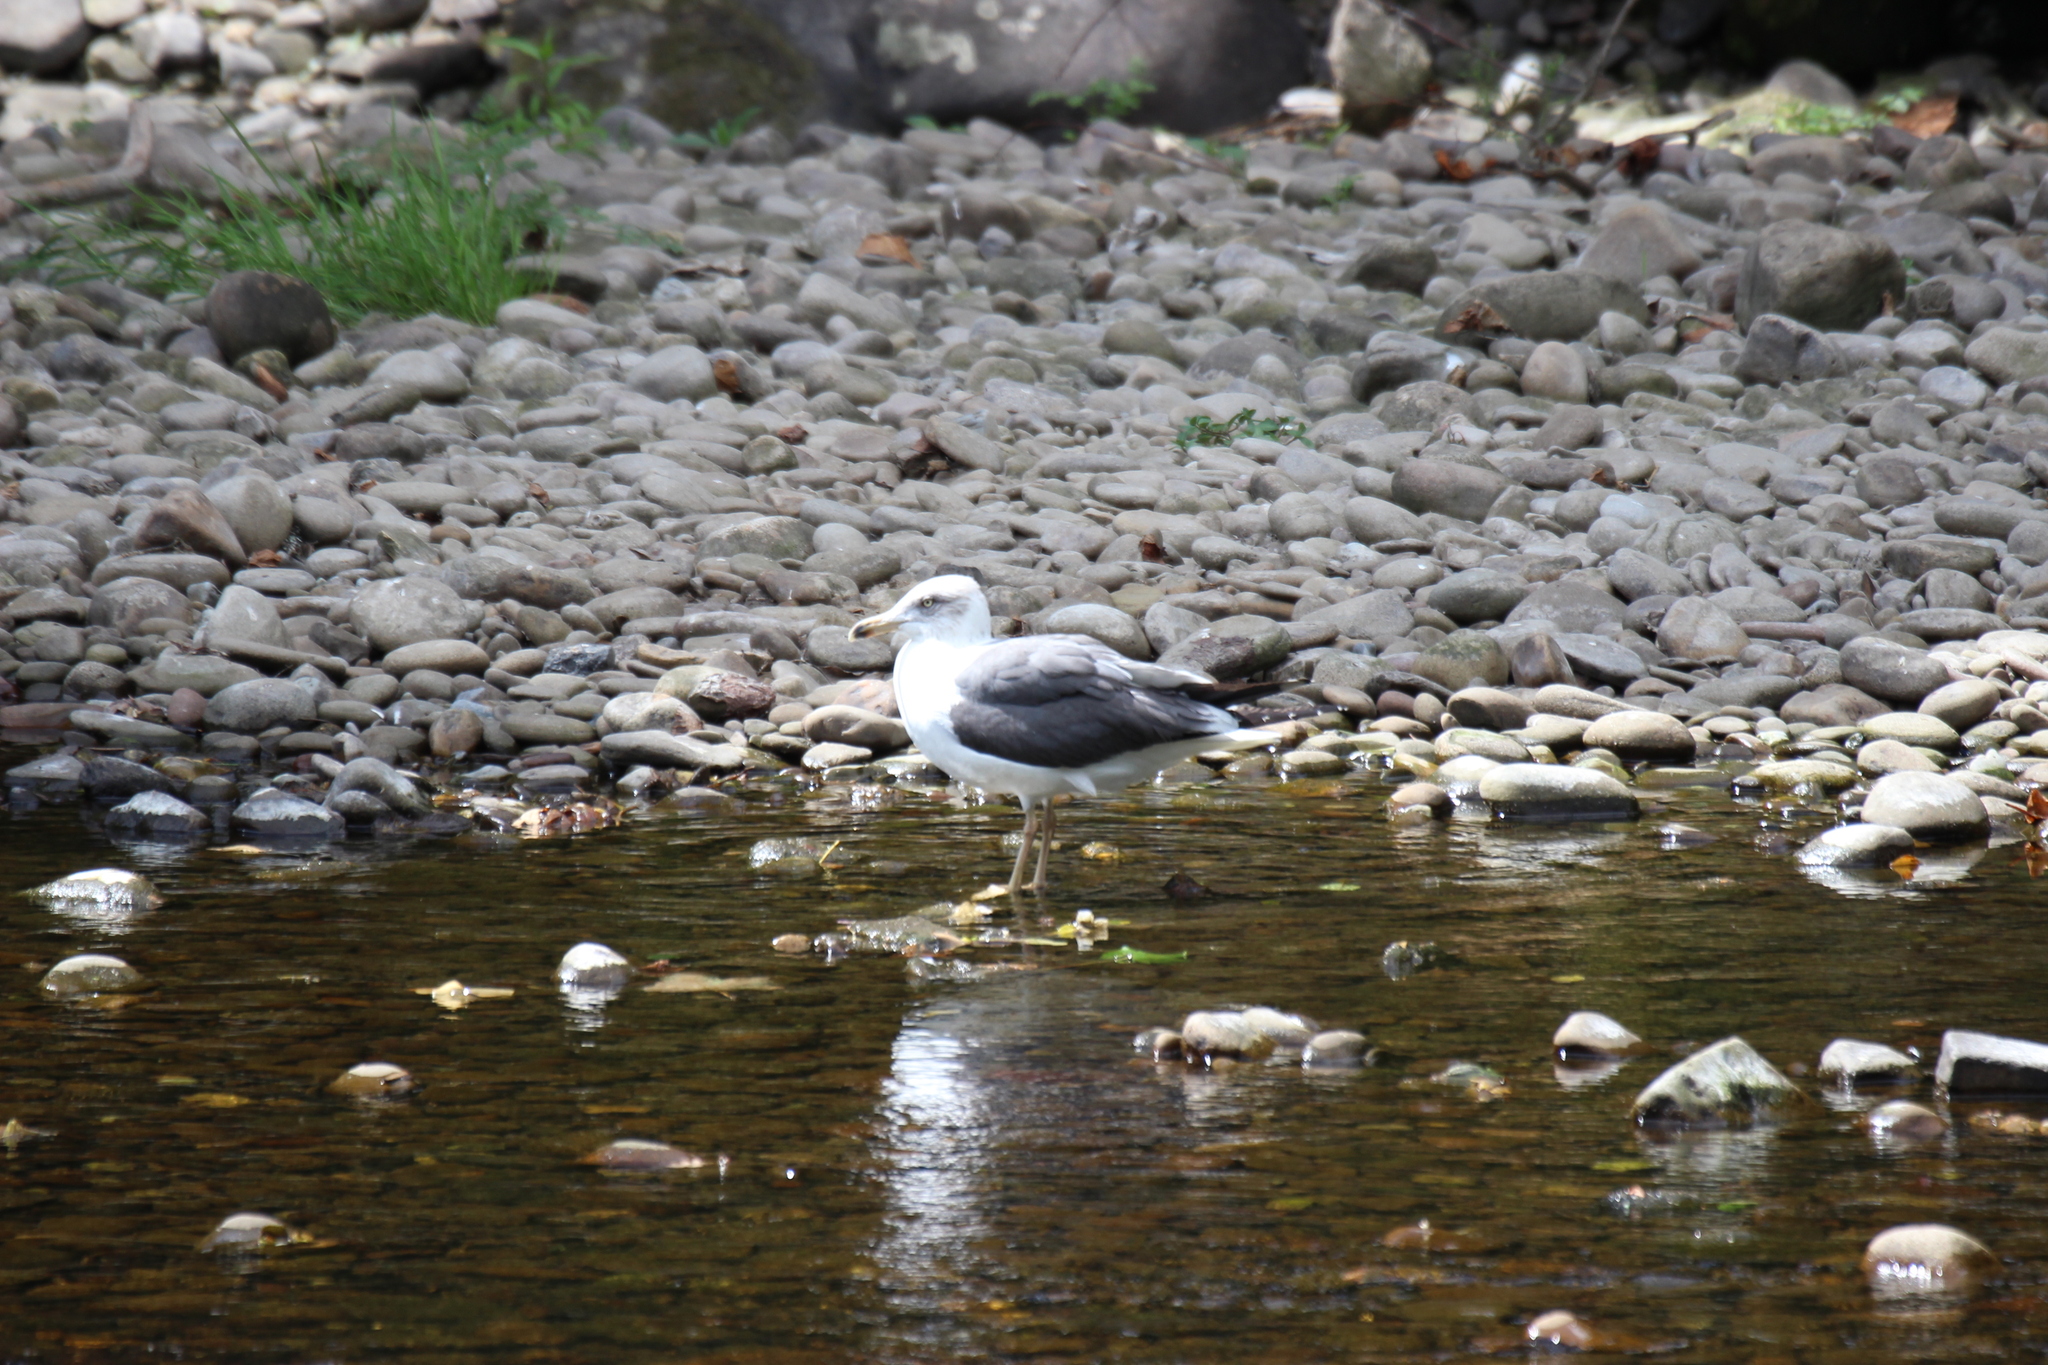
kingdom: Animalia
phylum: Chordata
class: Aves
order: Charadriiformes
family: Laridae
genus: Larus
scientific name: Larus fuscus
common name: Lesser black-backed gull
